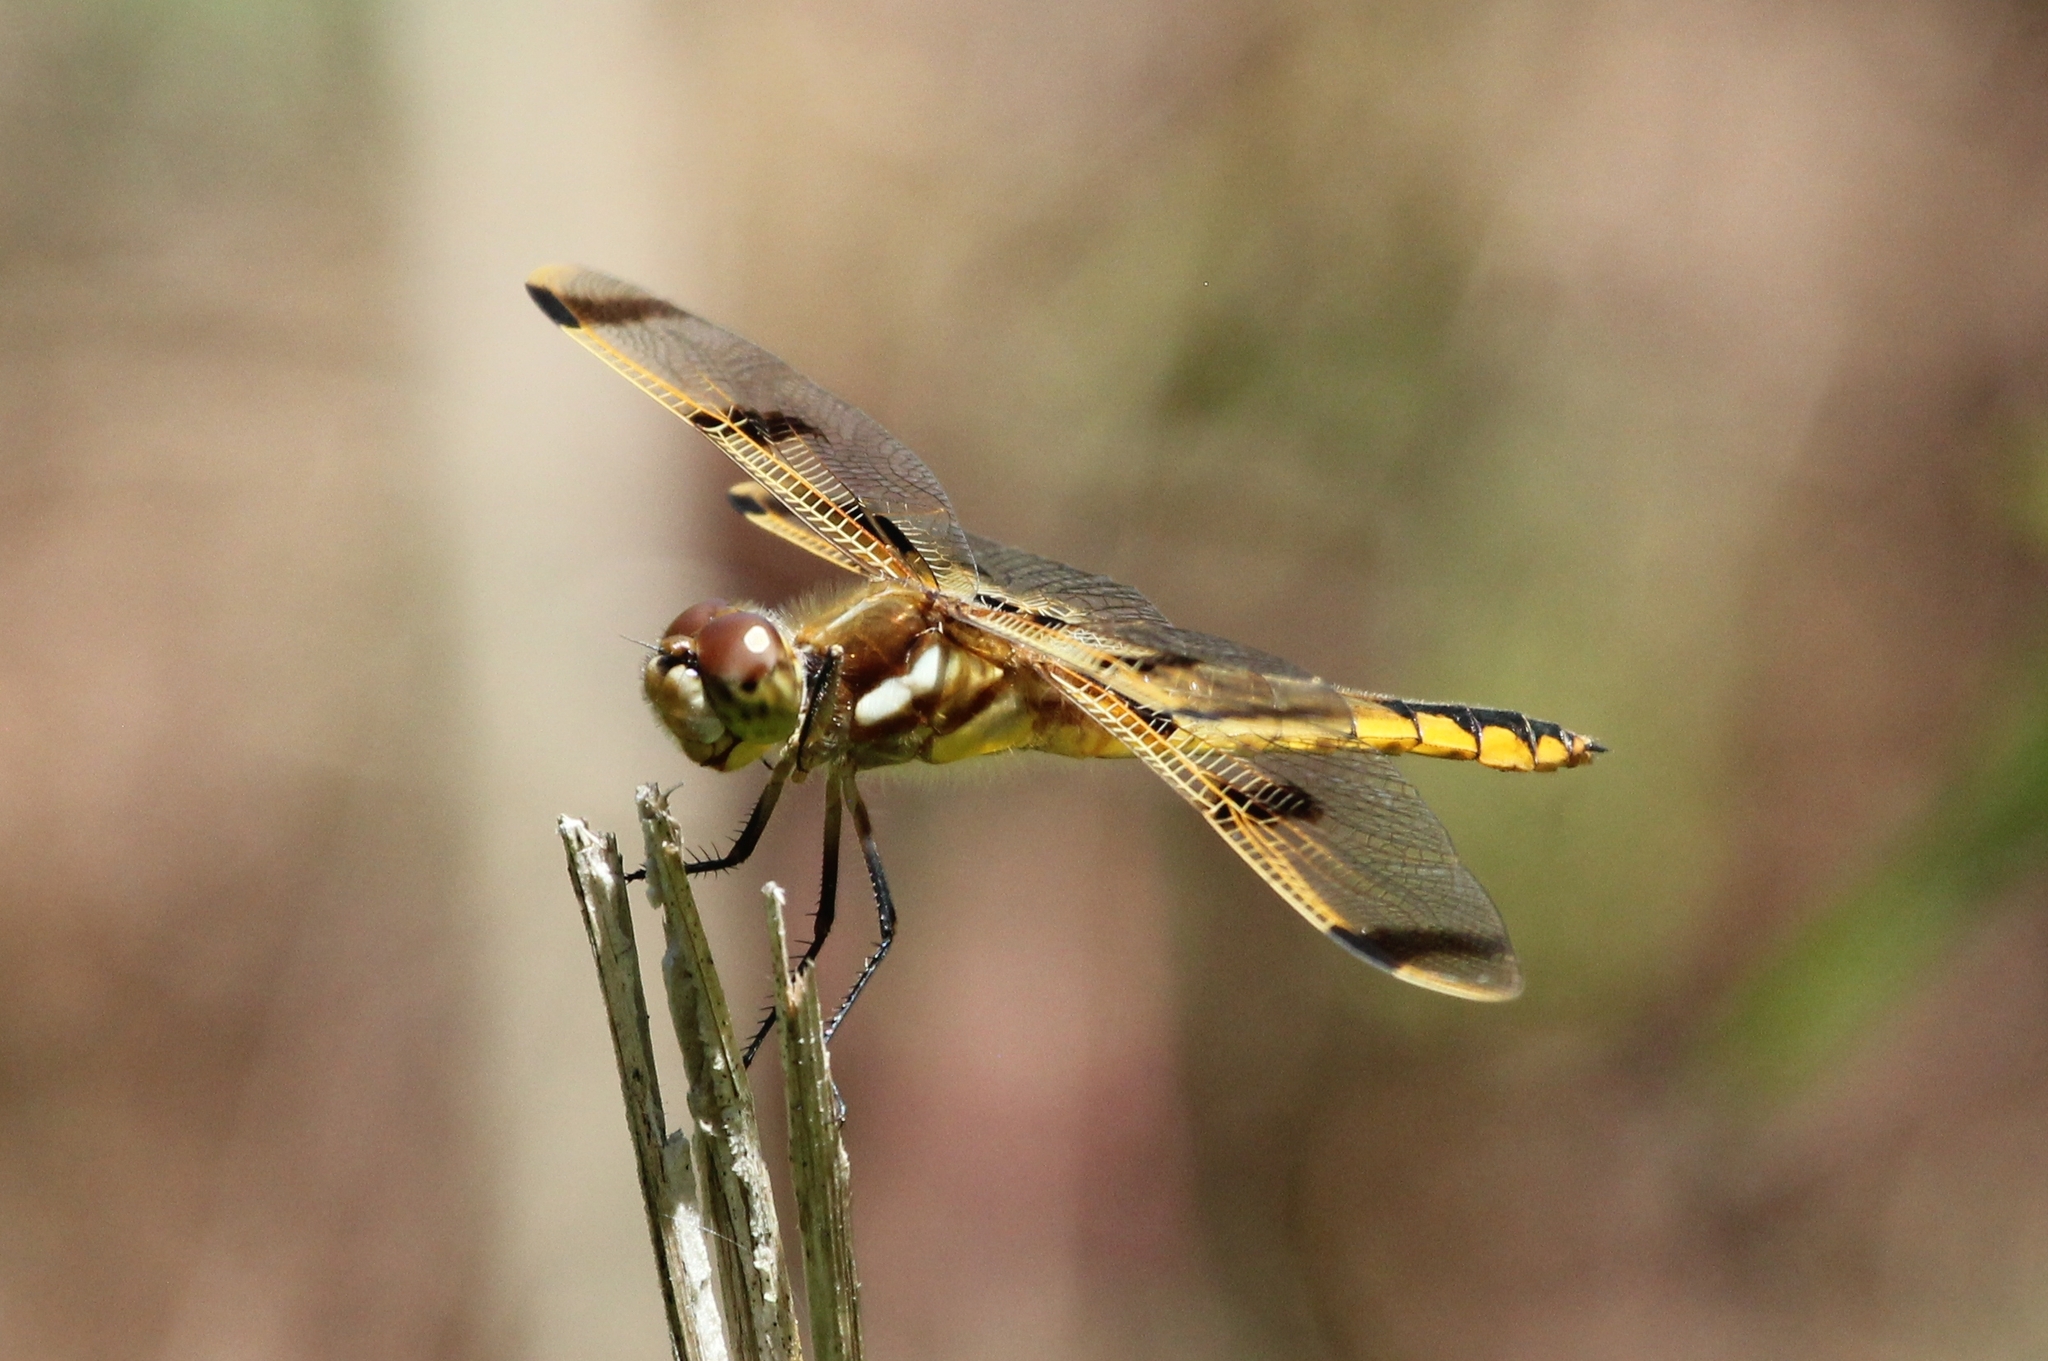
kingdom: Animalia
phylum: Arthropoda
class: Insecta
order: Odonata
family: Libellulidae
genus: Libellula
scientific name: Libellula semifasciata
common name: Painted skimmer
